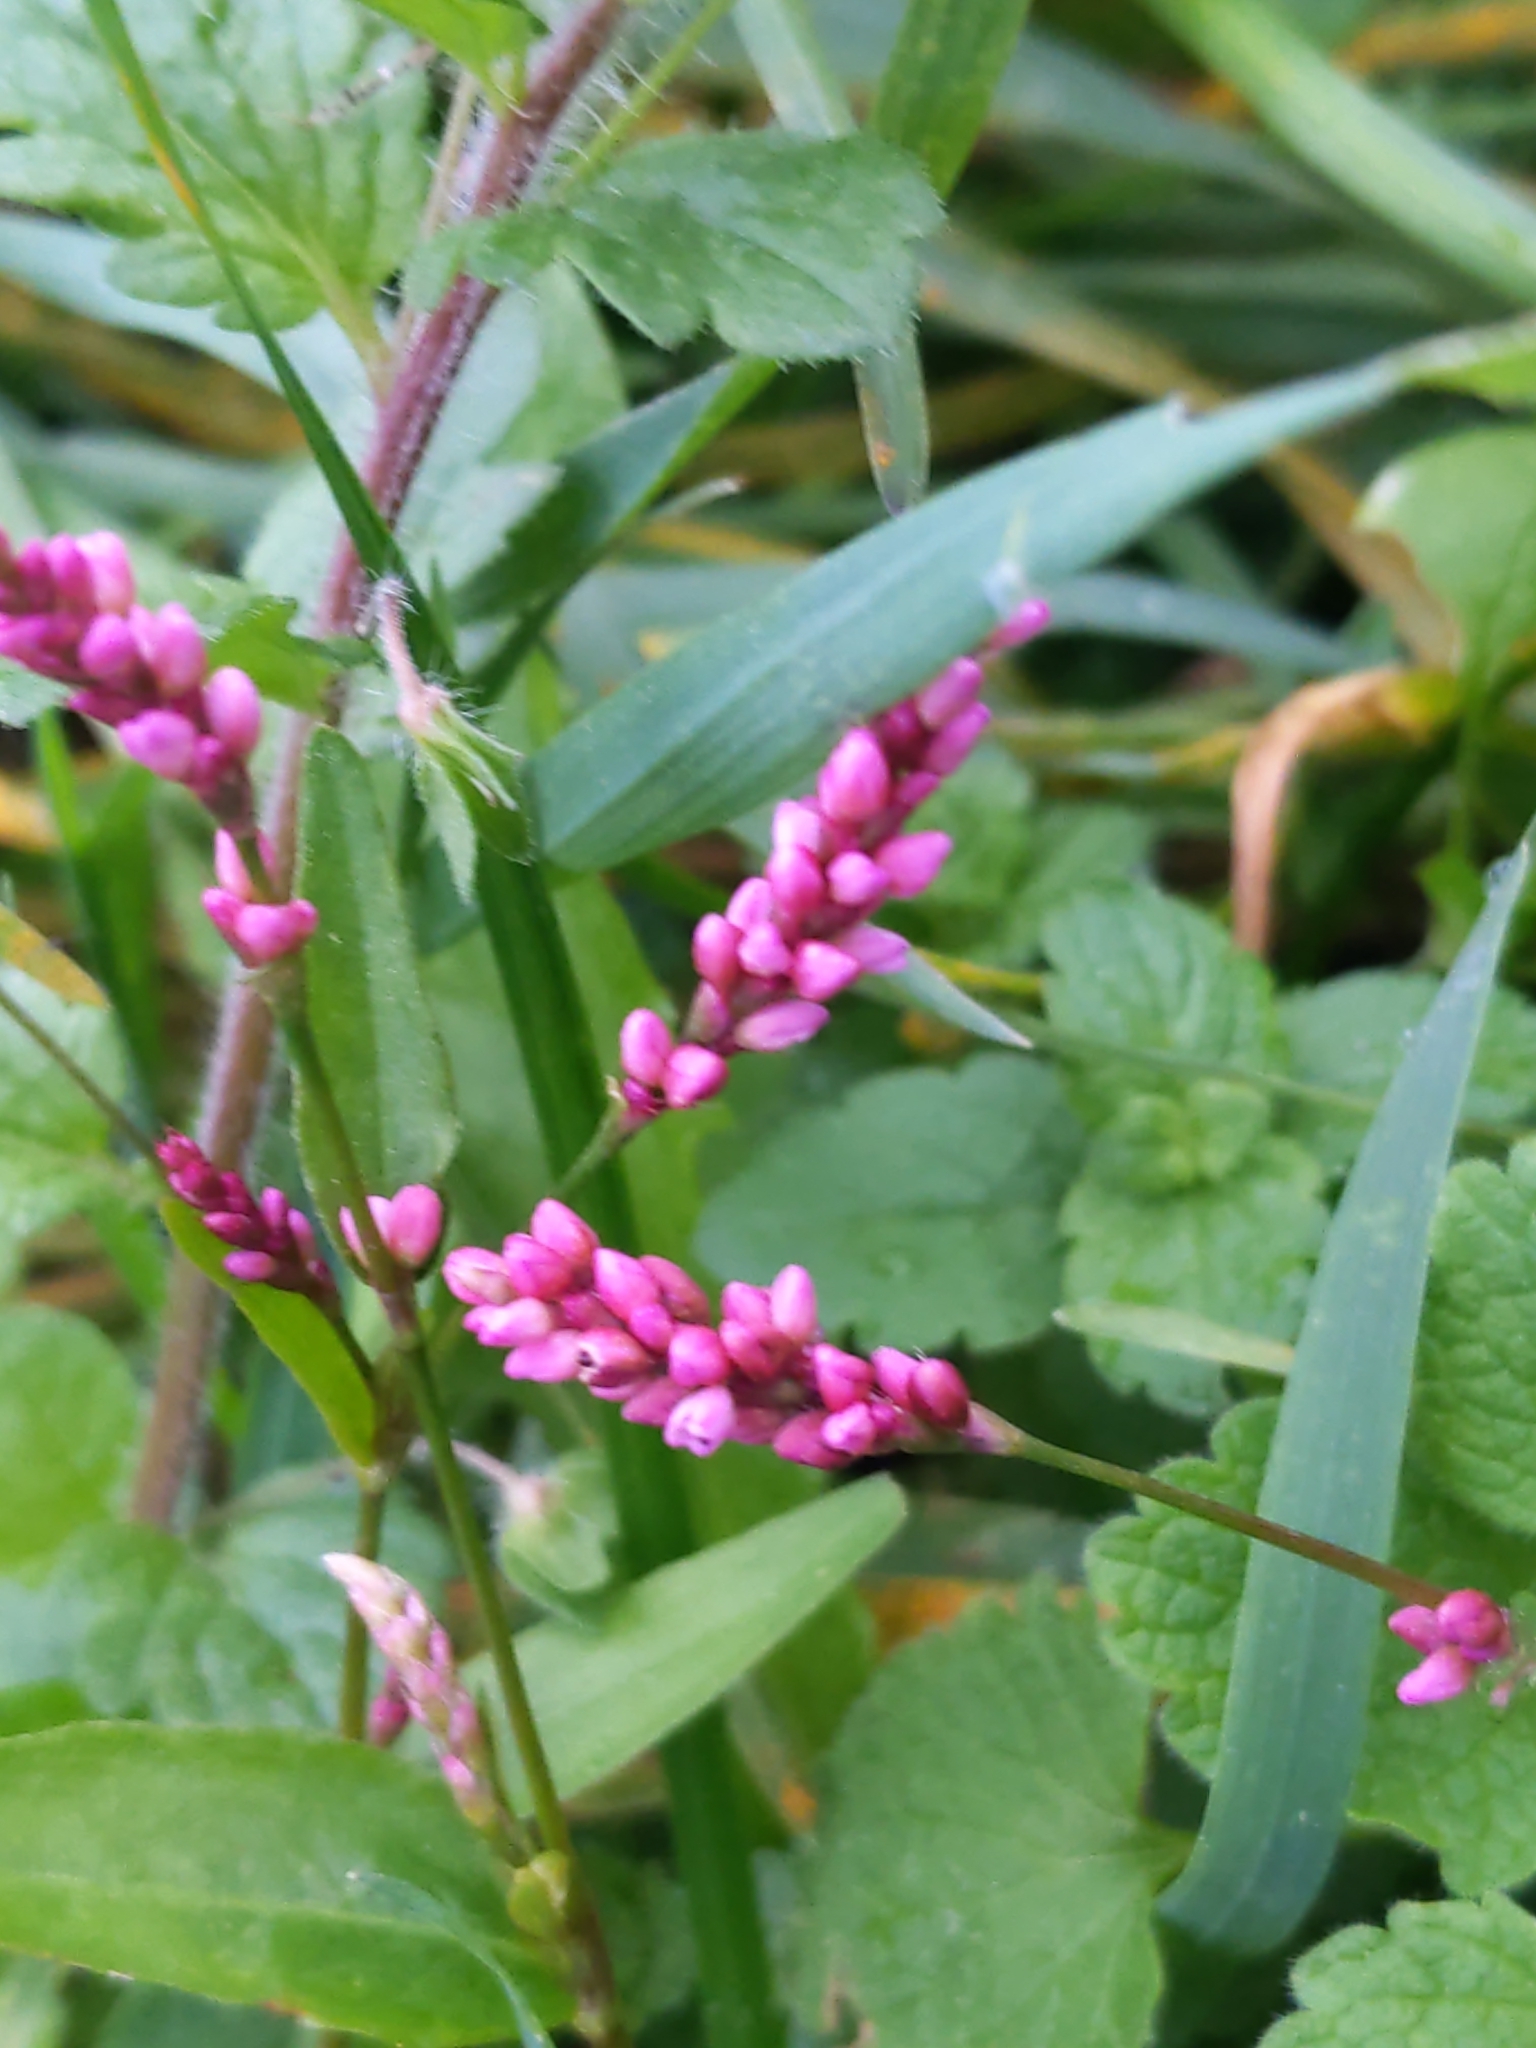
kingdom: Plantae
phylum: Tracheophyta
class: Magnoliopsida
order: Caryophyllales
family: Polygonaceae
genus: Persicaria
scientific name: Persicaria longiseta
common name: Bristly lady's-thumb
